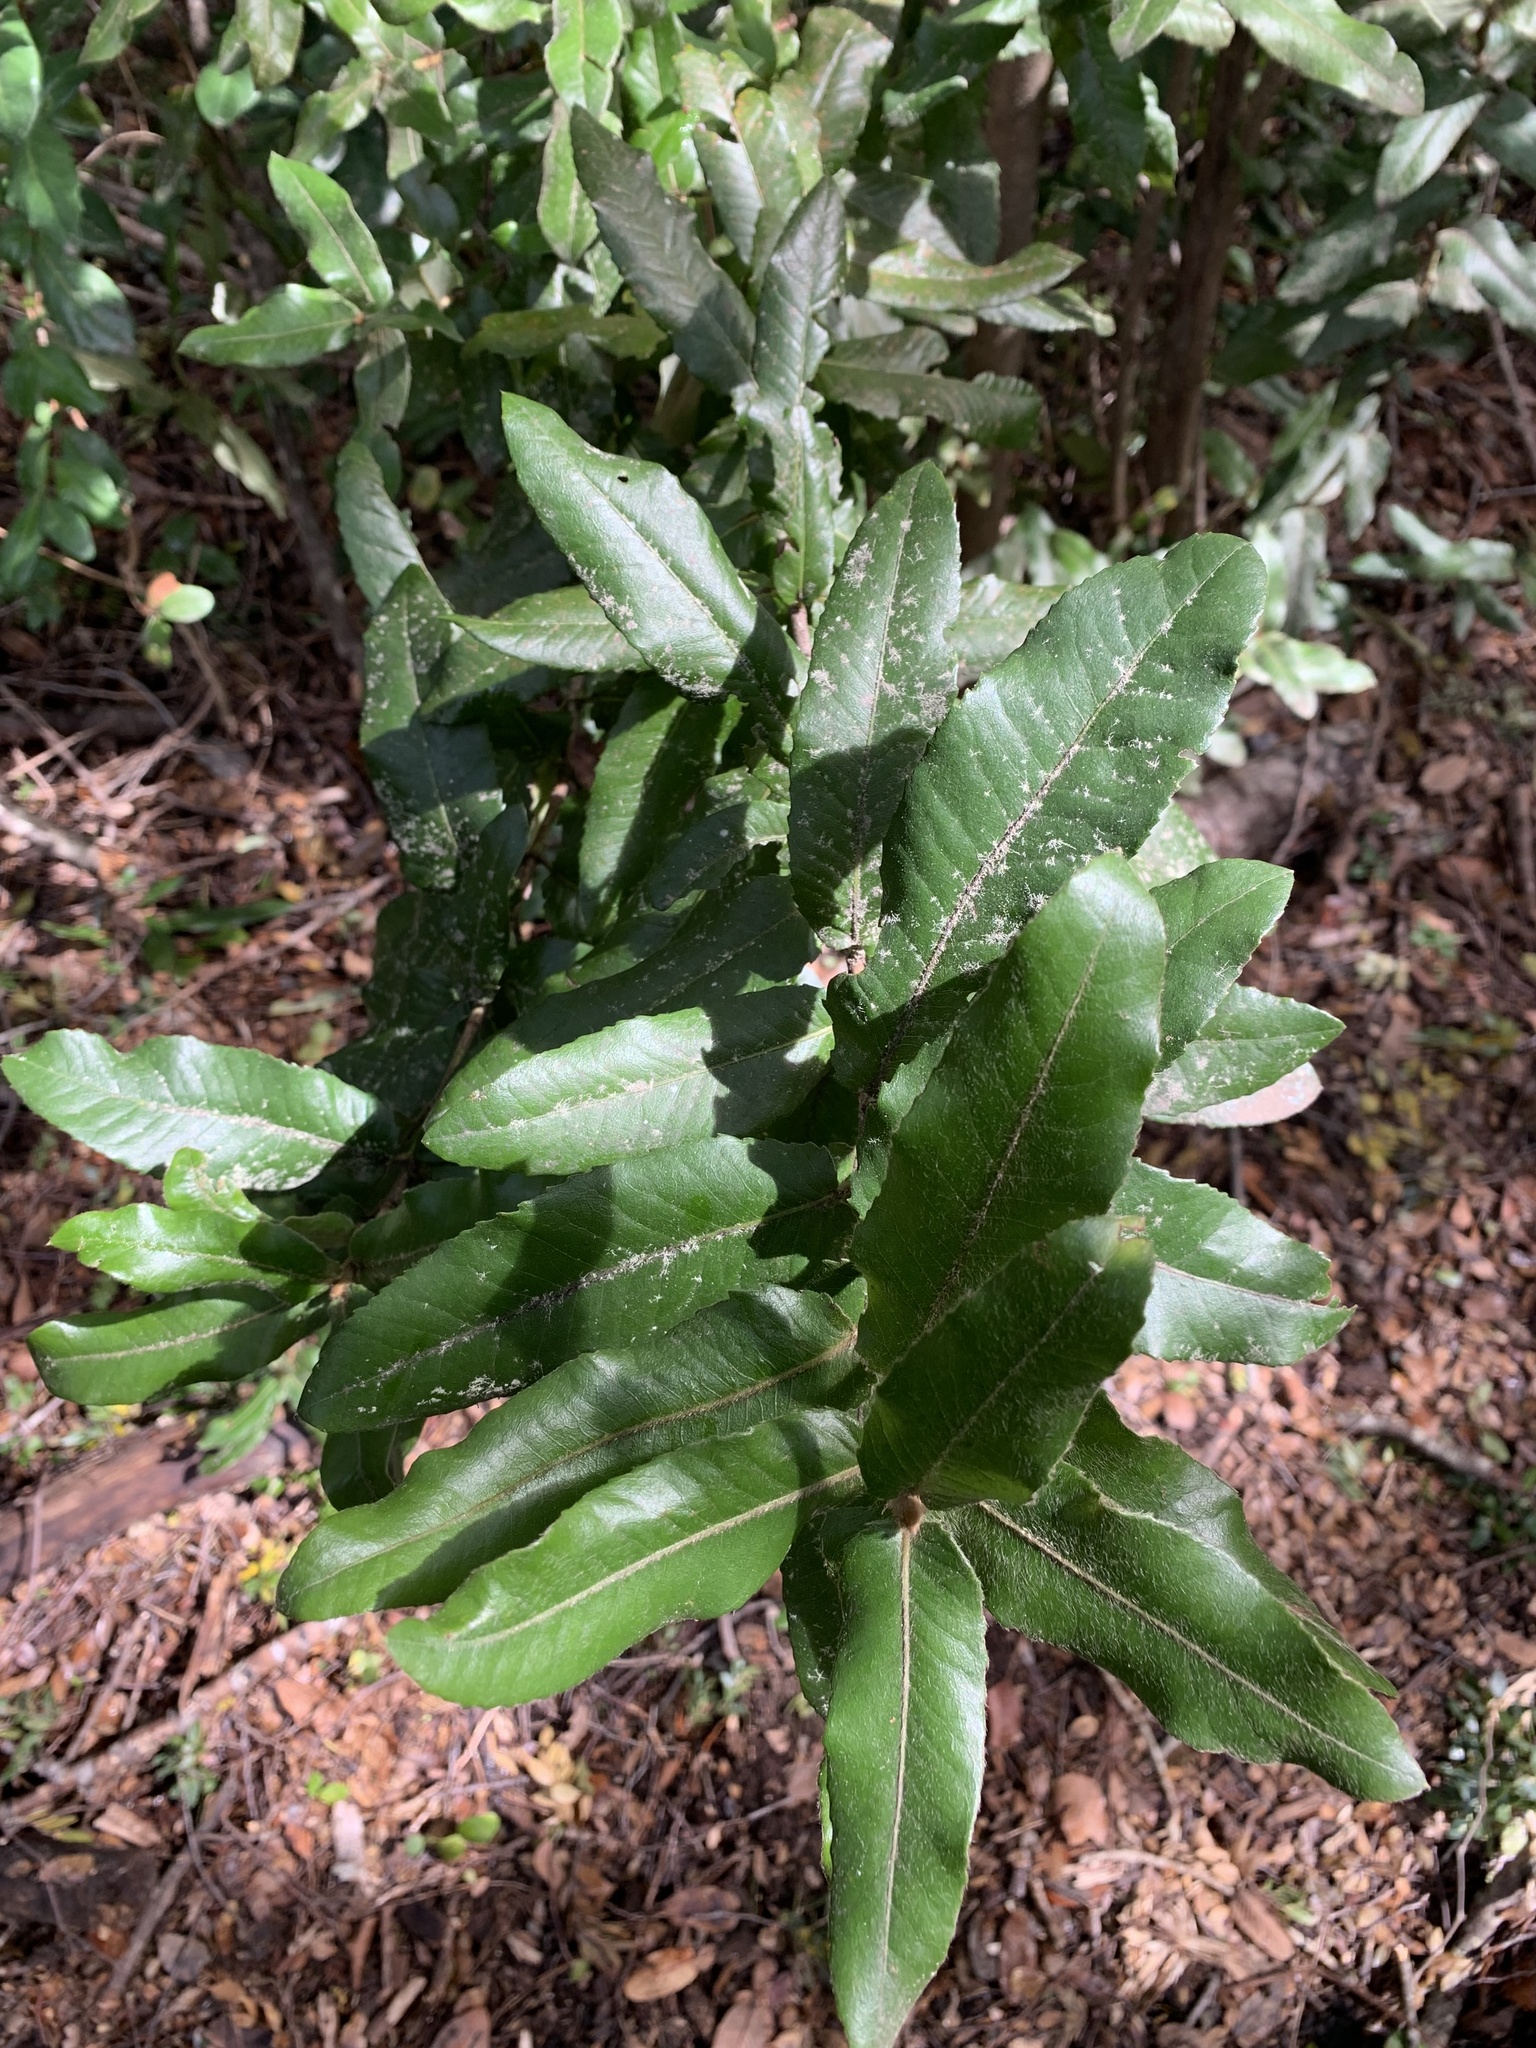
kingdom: Plantae
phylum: Tracheophyta
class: Magnoliopsida
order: Oxalidales
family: Cunoniaceae
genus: Eucryphia
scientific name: Eucryphia cordifolia
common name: Ulmo
